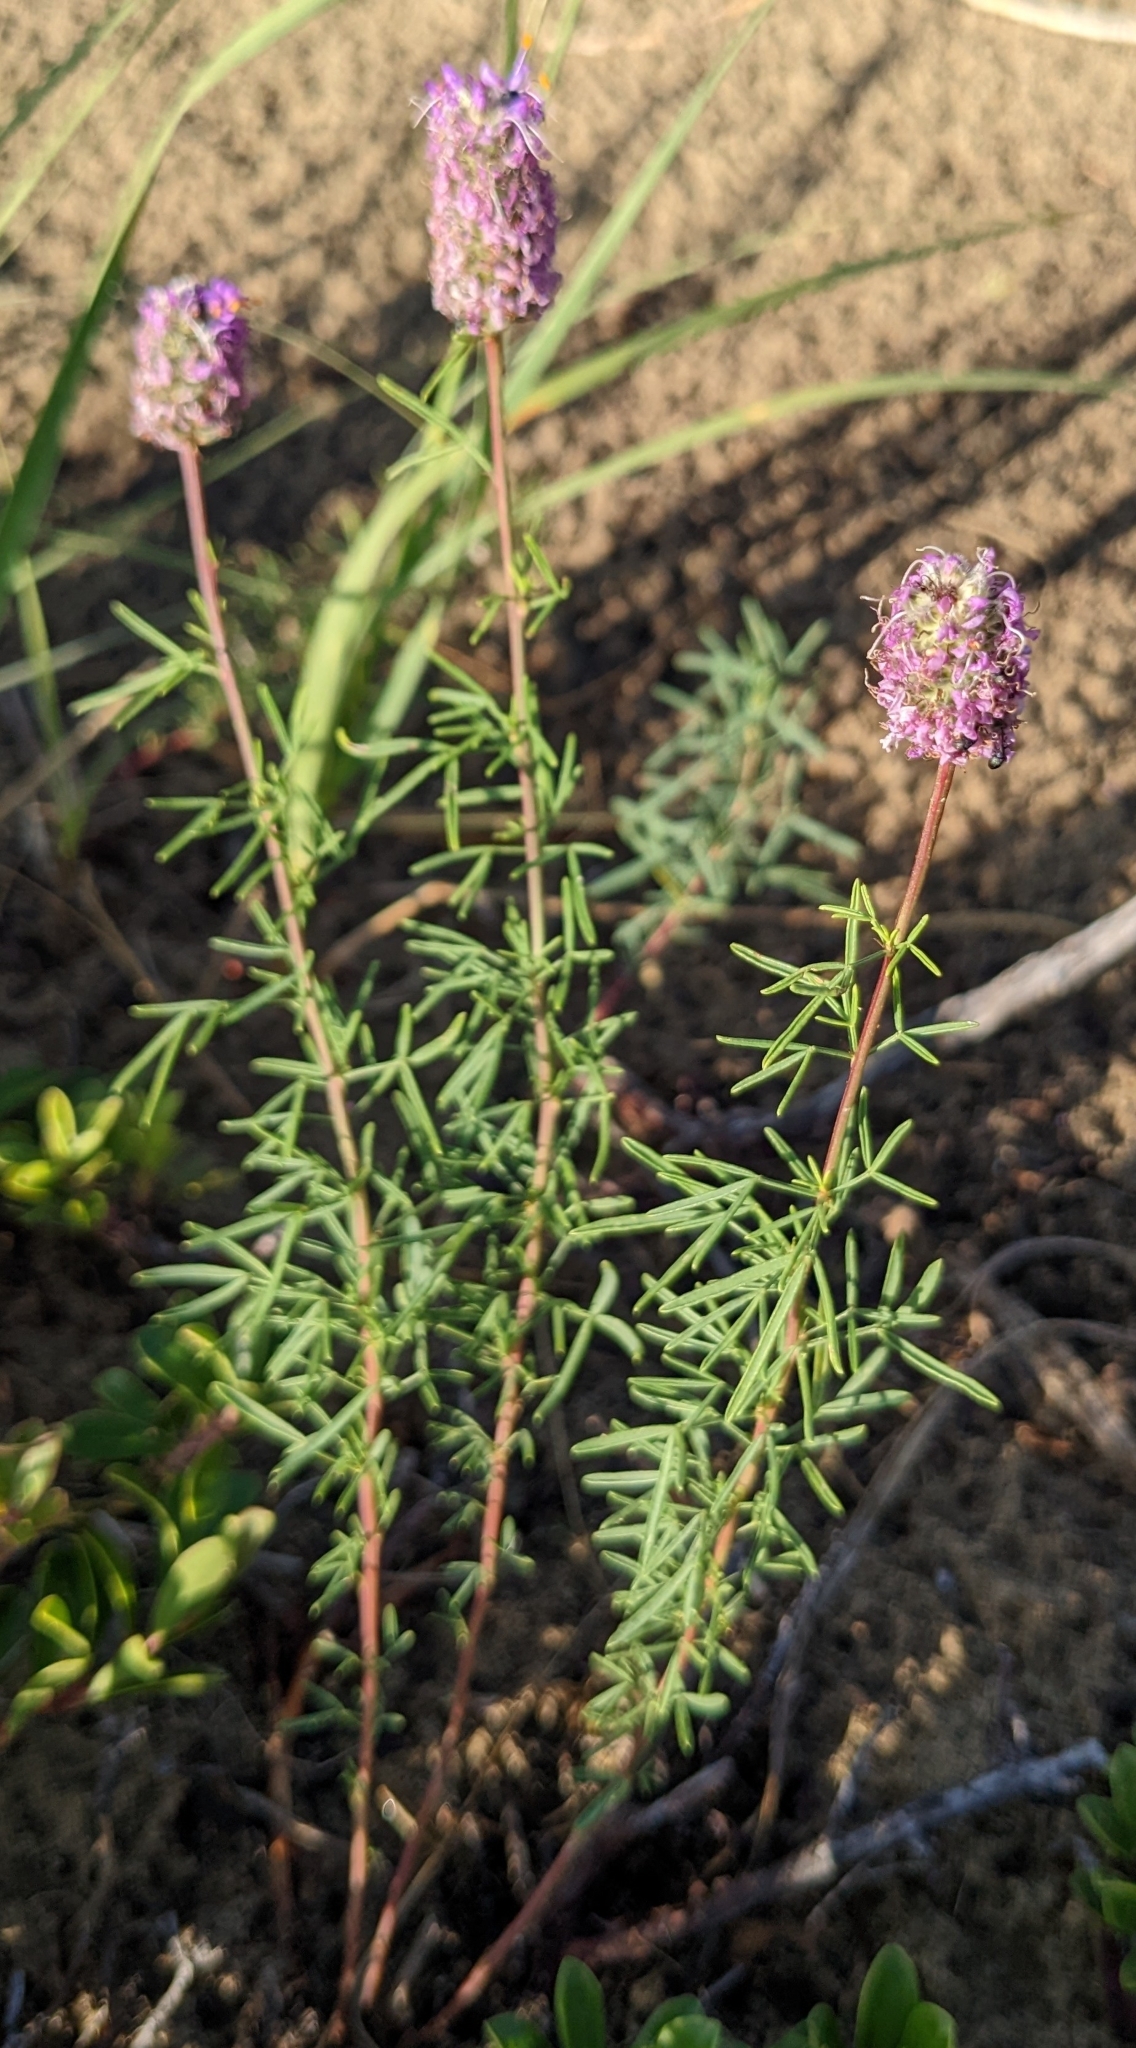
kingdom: Plantae
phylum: Tracheophyta
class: Magnoliopsida
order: Fabales
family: Fabaceae
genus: Dalea
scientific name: Dalea purpurea
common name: Purple prairie-clover
